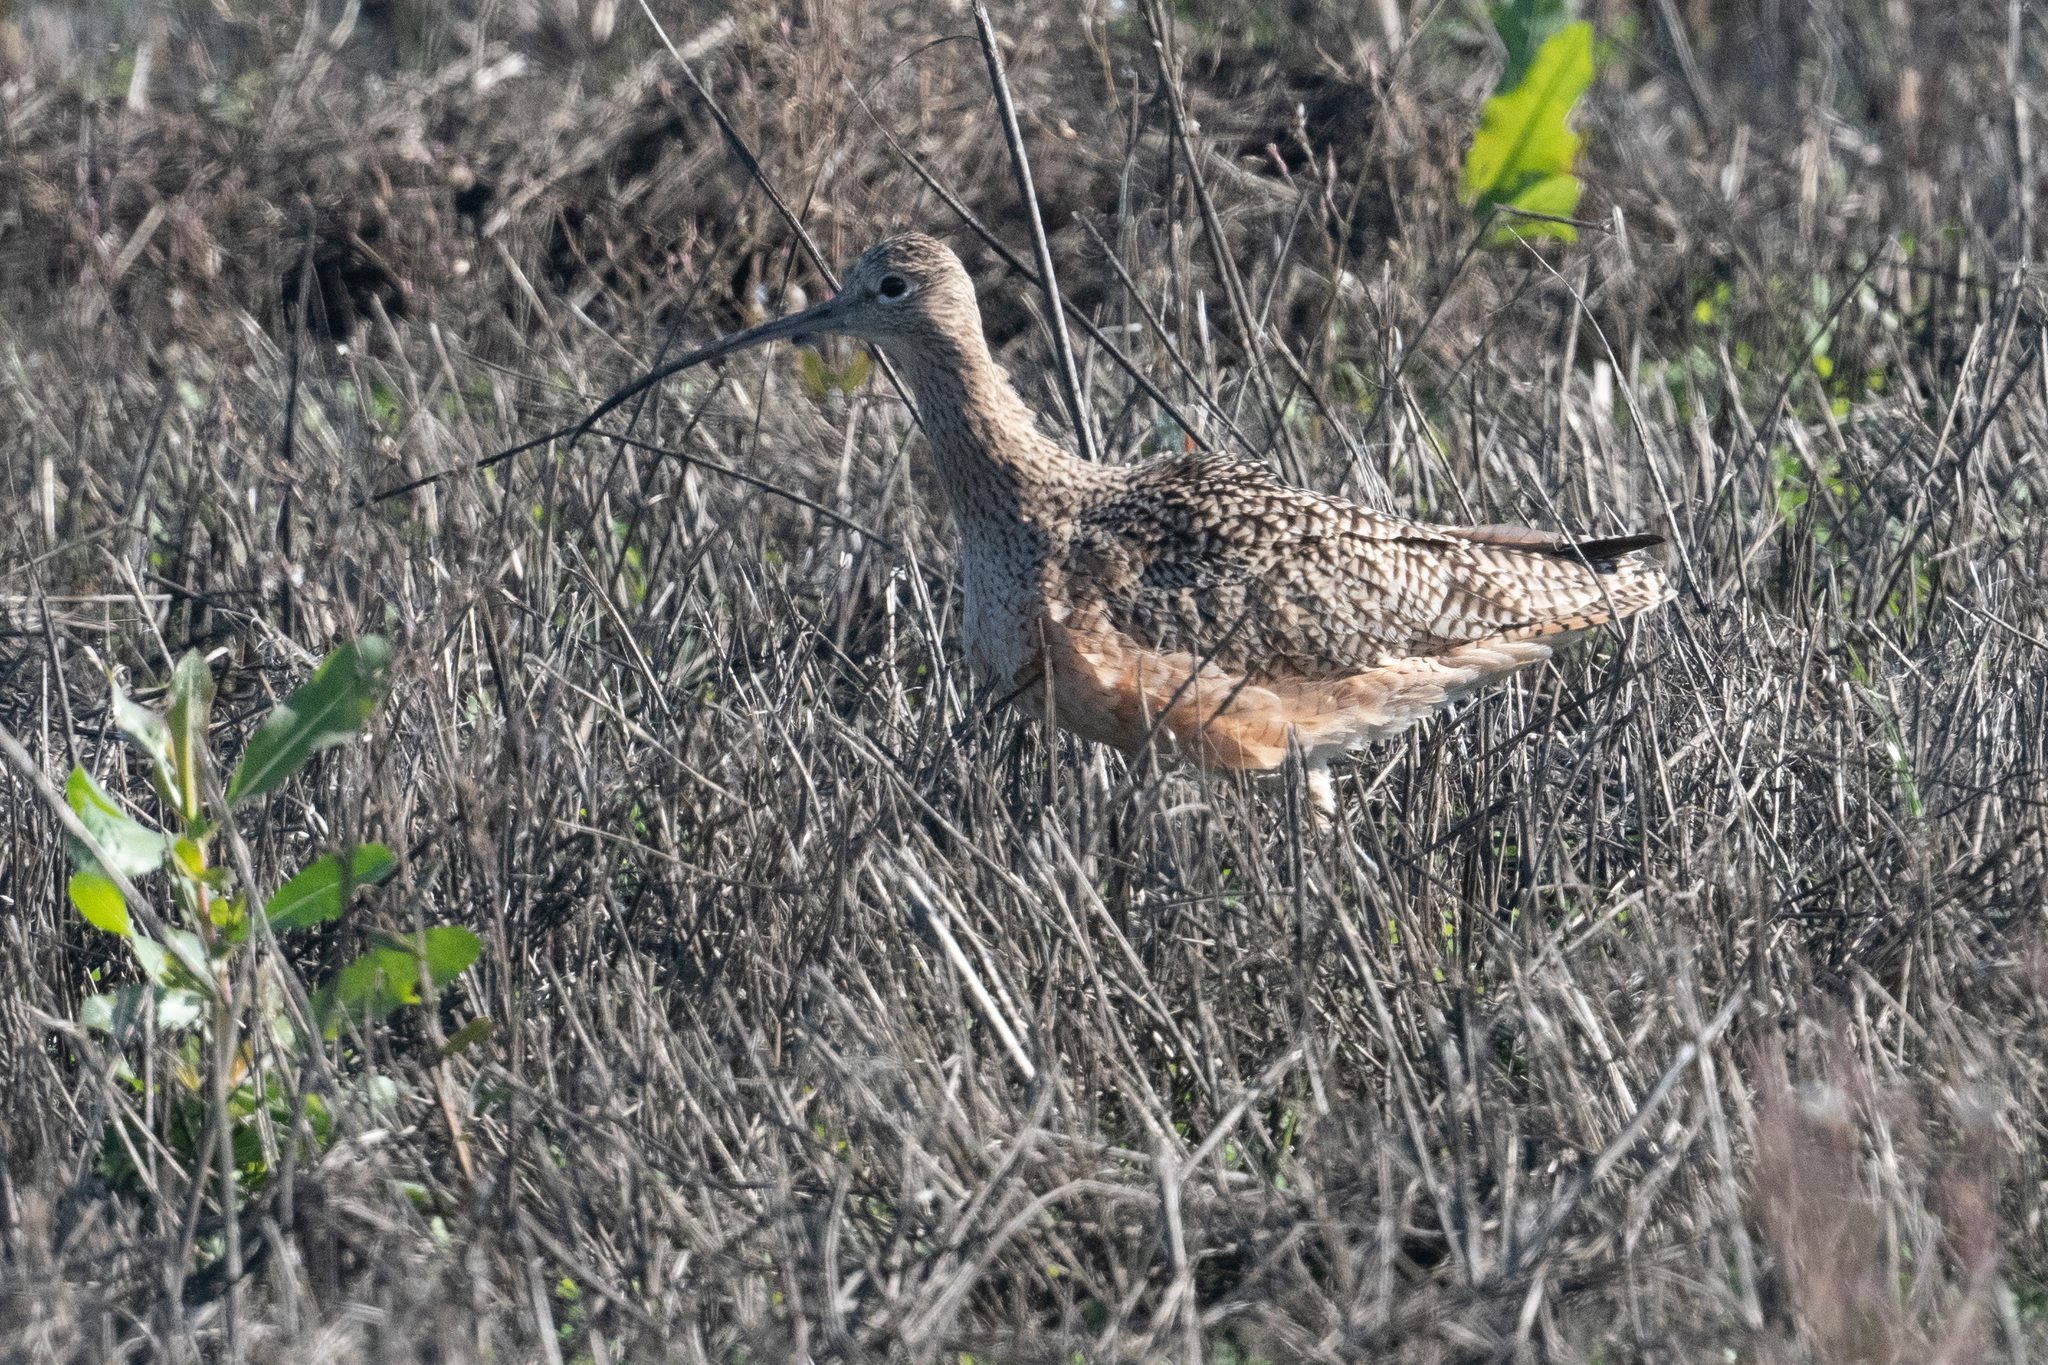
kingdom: Animalia
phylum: Chordata
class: Aves
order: Charadriiformes
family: Scolopacidae
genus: Numenius
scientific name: Numenius americanus
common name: Long-billed curlew
